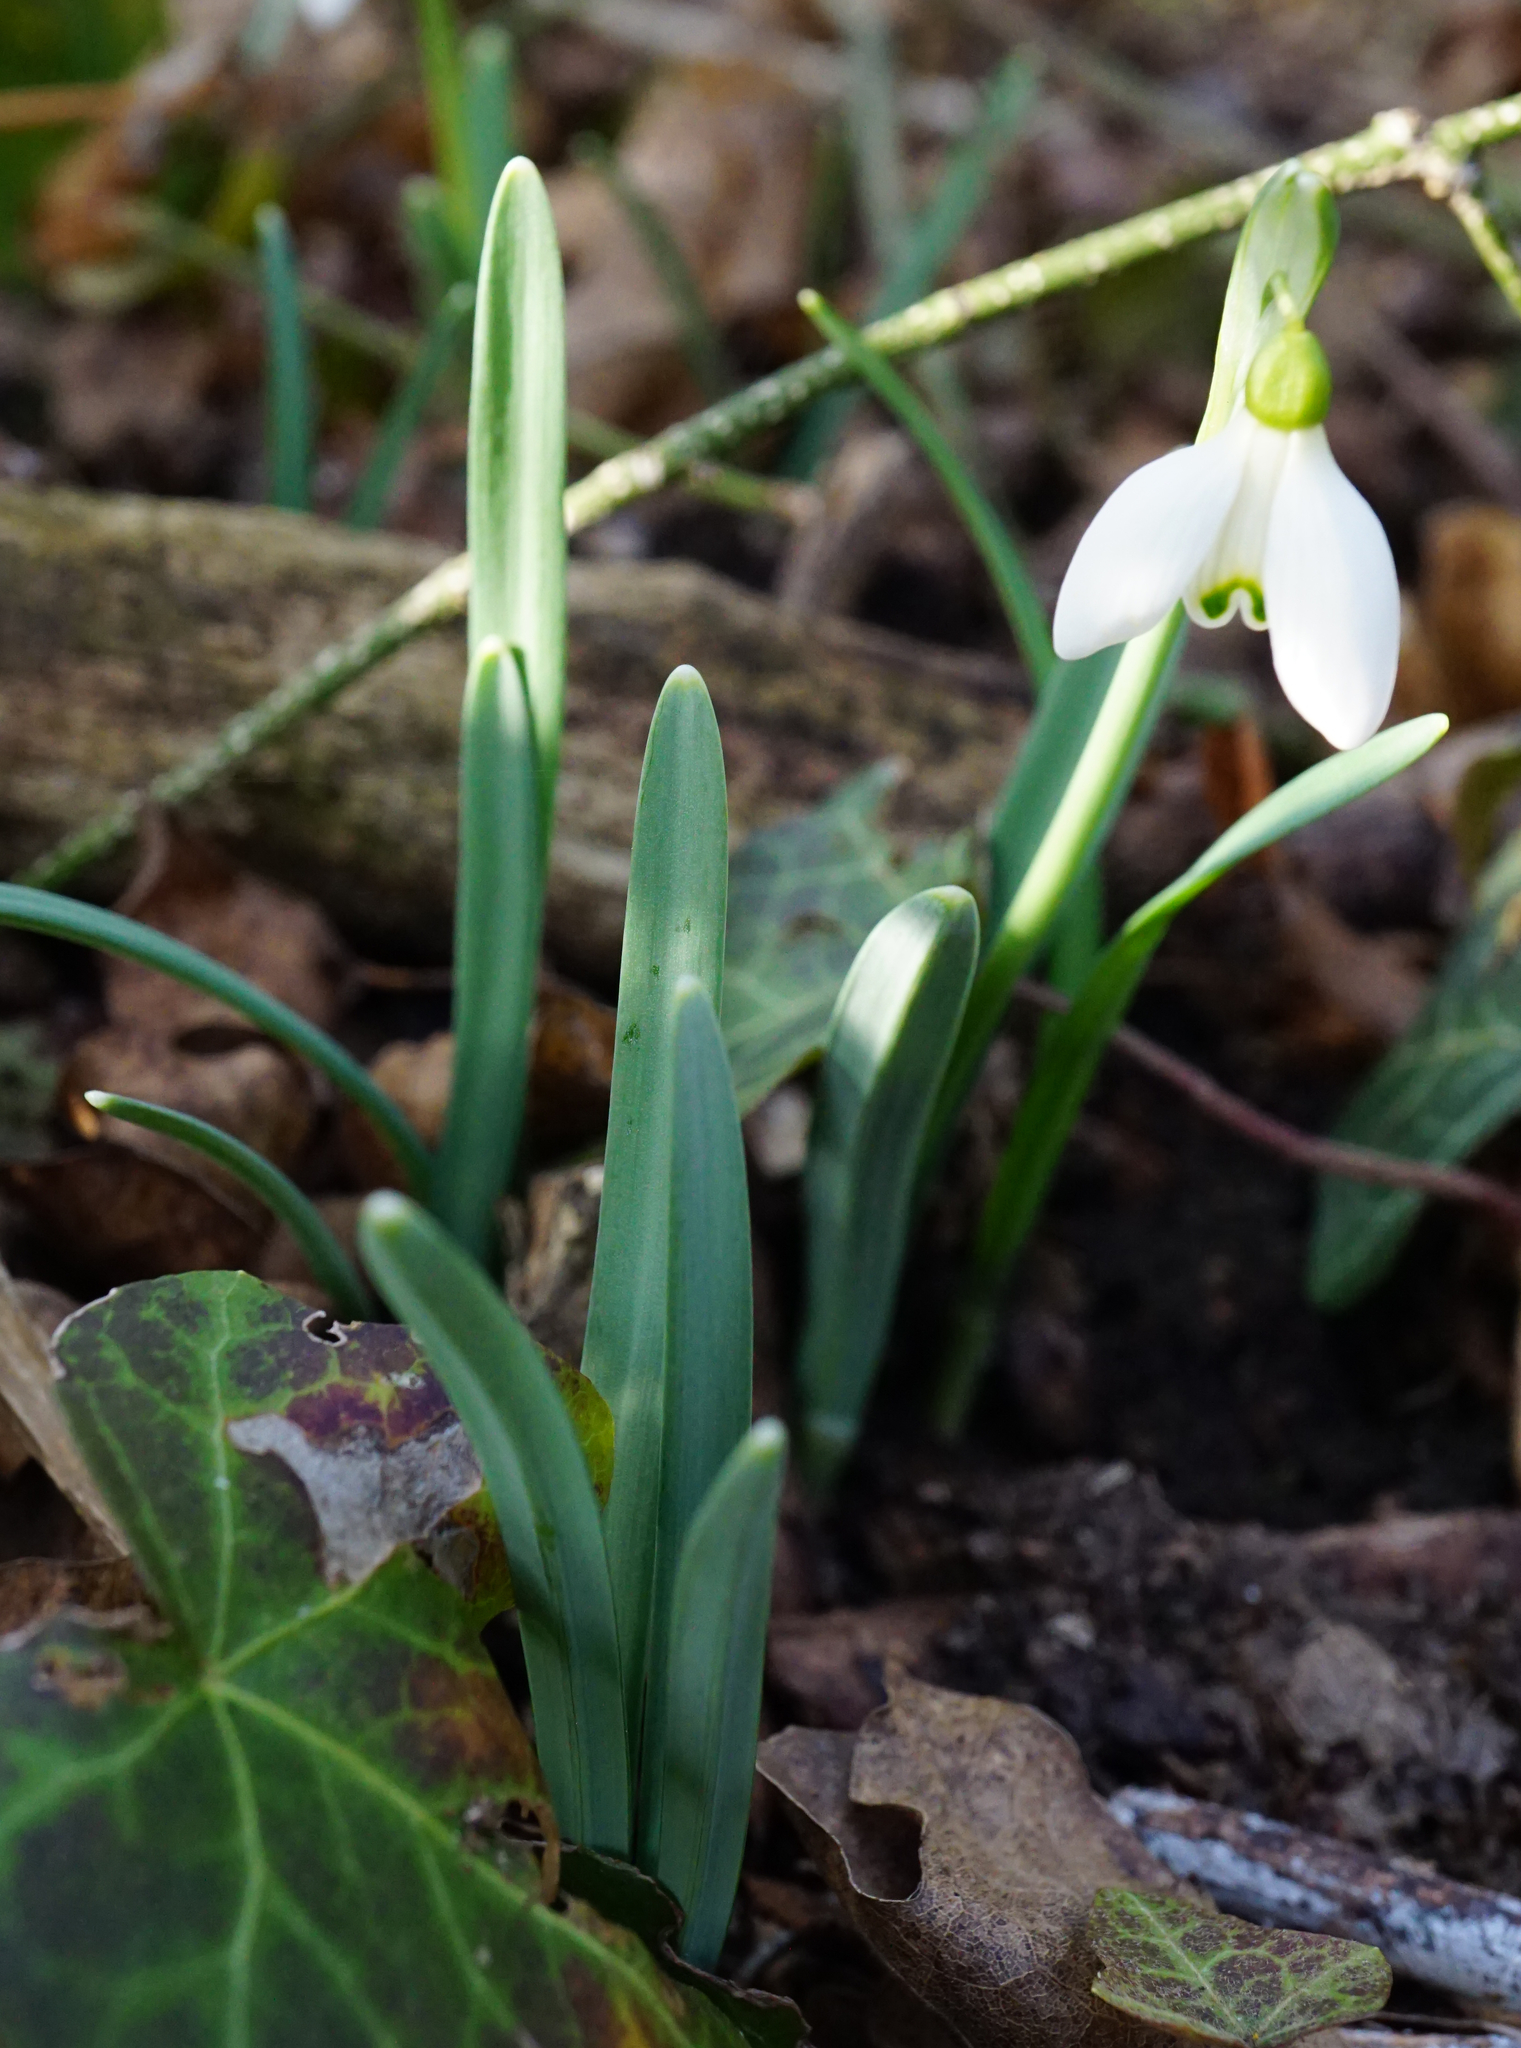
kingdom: Plantae
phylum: Tracheophyta
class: Liliopsida
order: Asparagales
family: Amaryllidaceae
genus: Galanthus
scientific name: Galanthus nivalis
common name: Snowdrop
